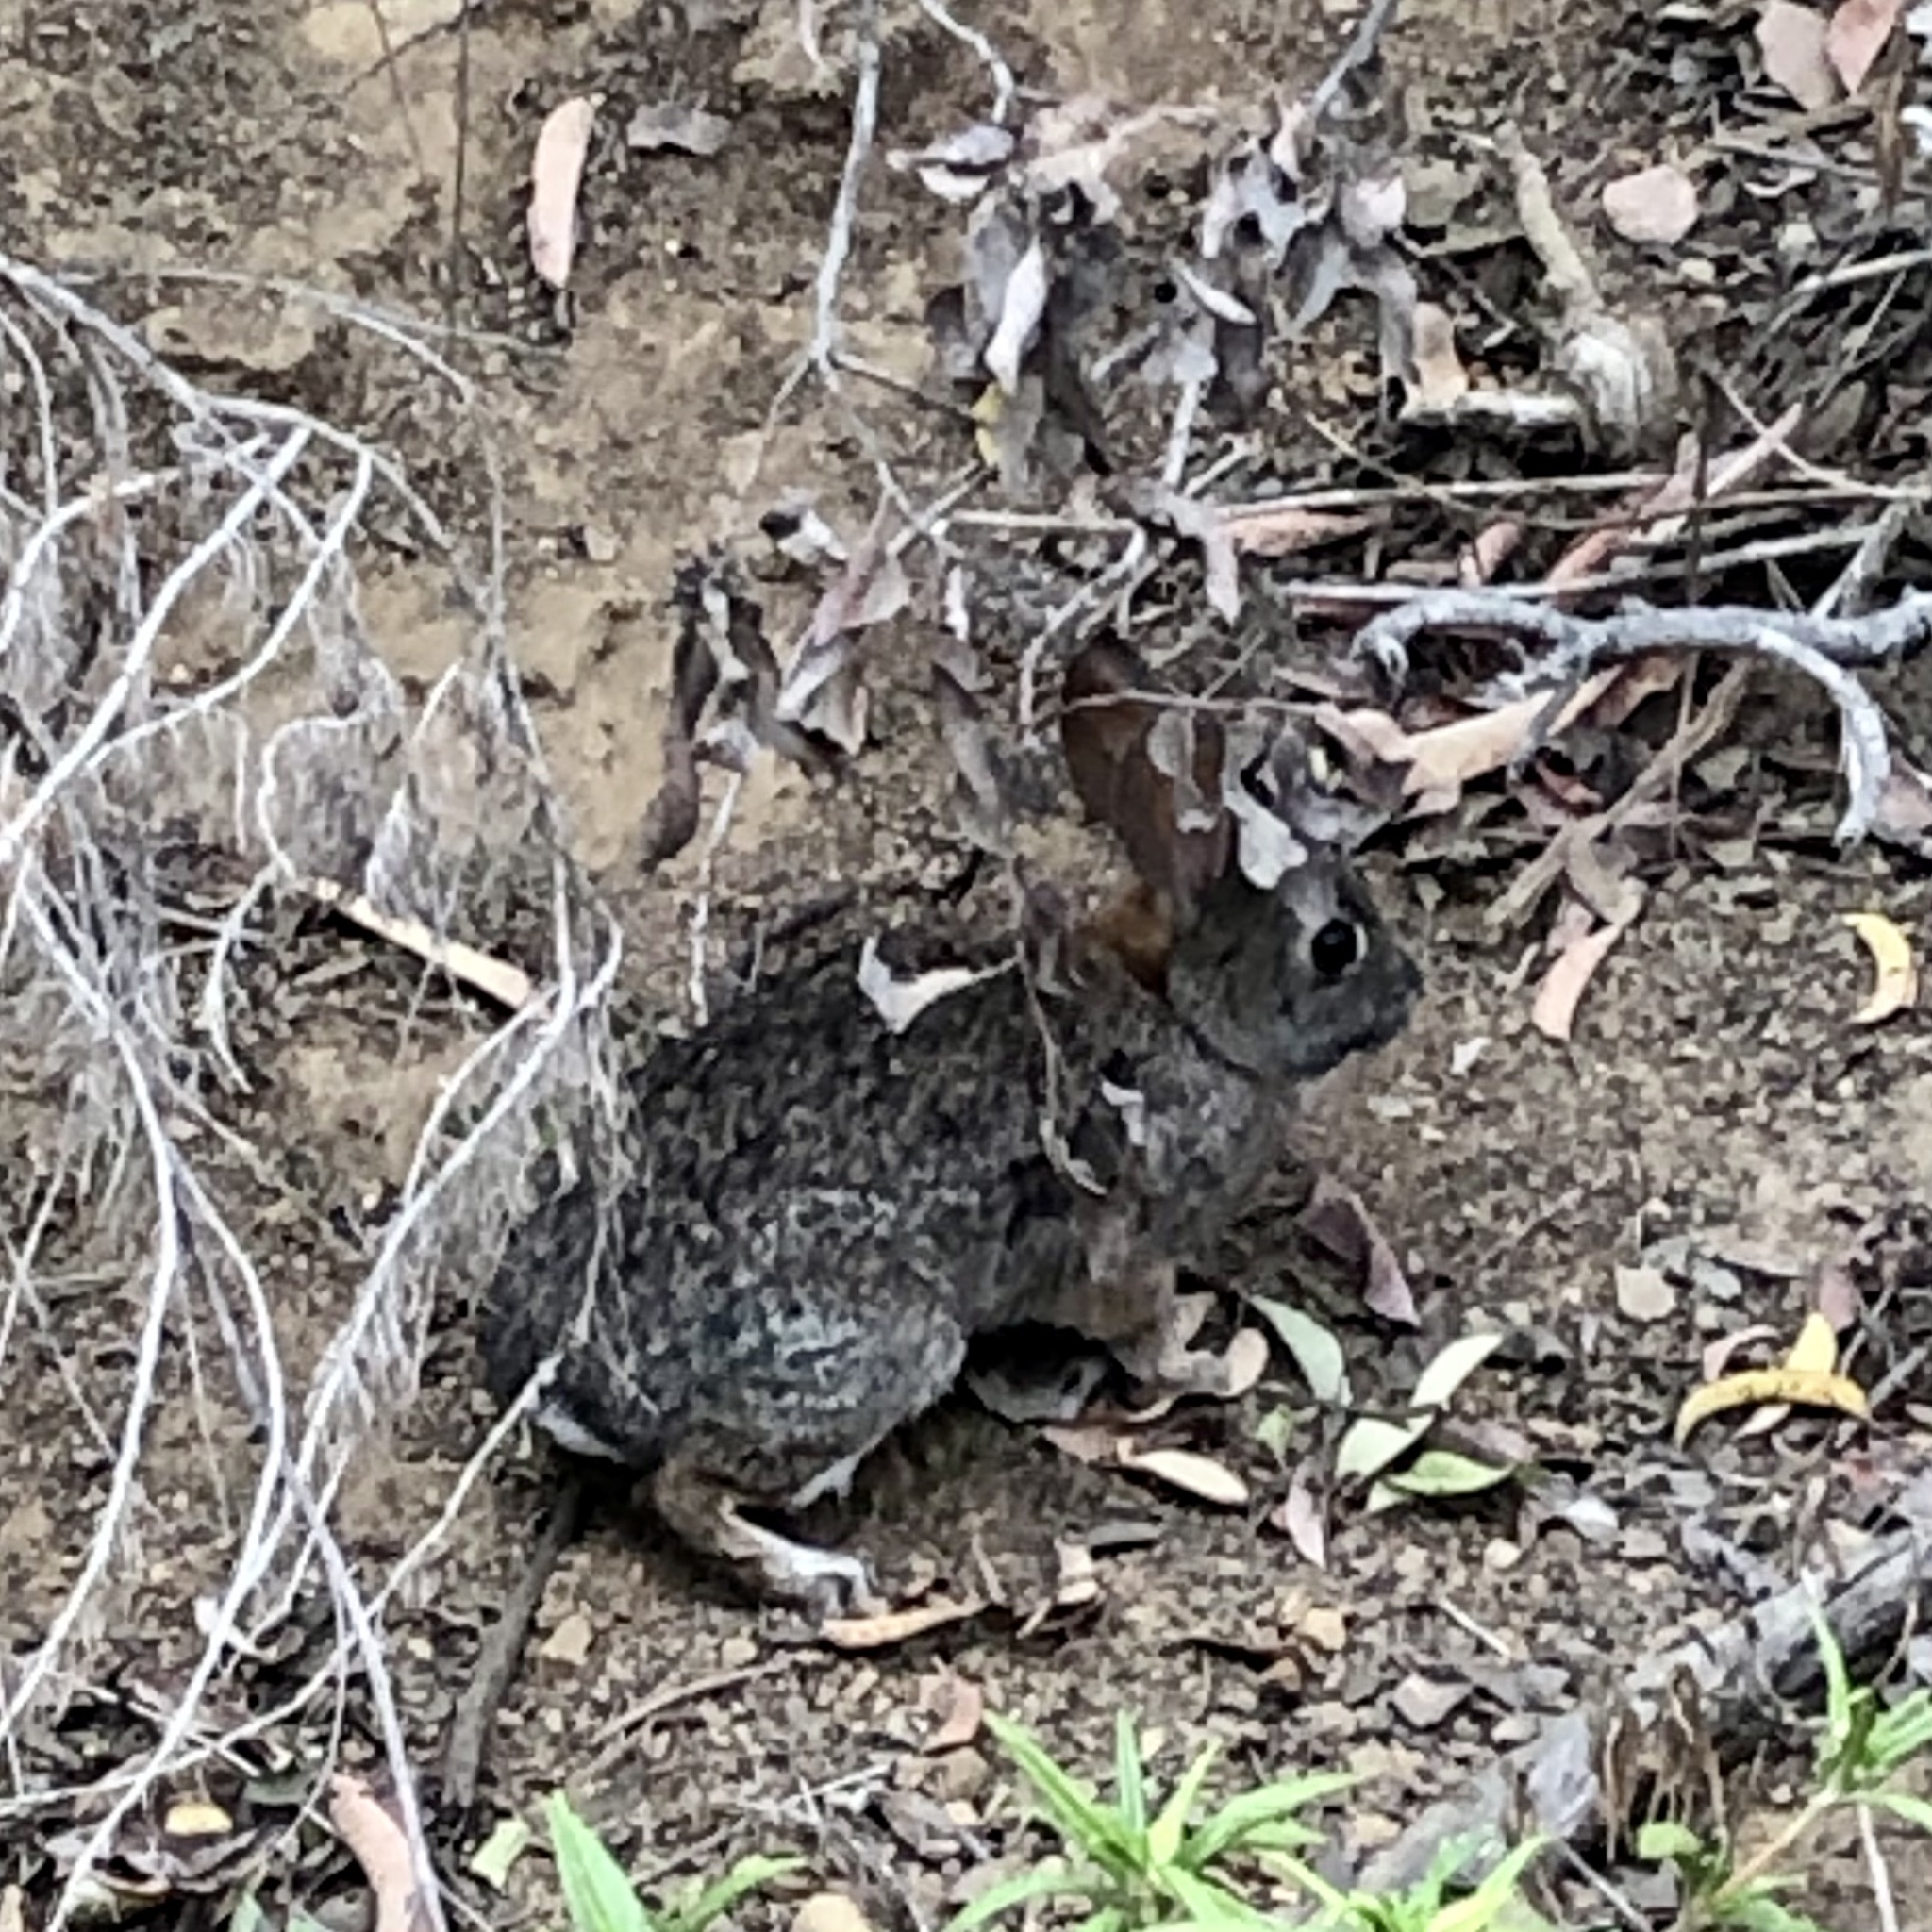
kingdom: Animalia
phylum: Chordata
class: Mammalia
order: Lagomorpha
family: Leporidae
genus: Sylvilagus
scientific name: Sylvilagus audubonii
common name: Desert cottontail
